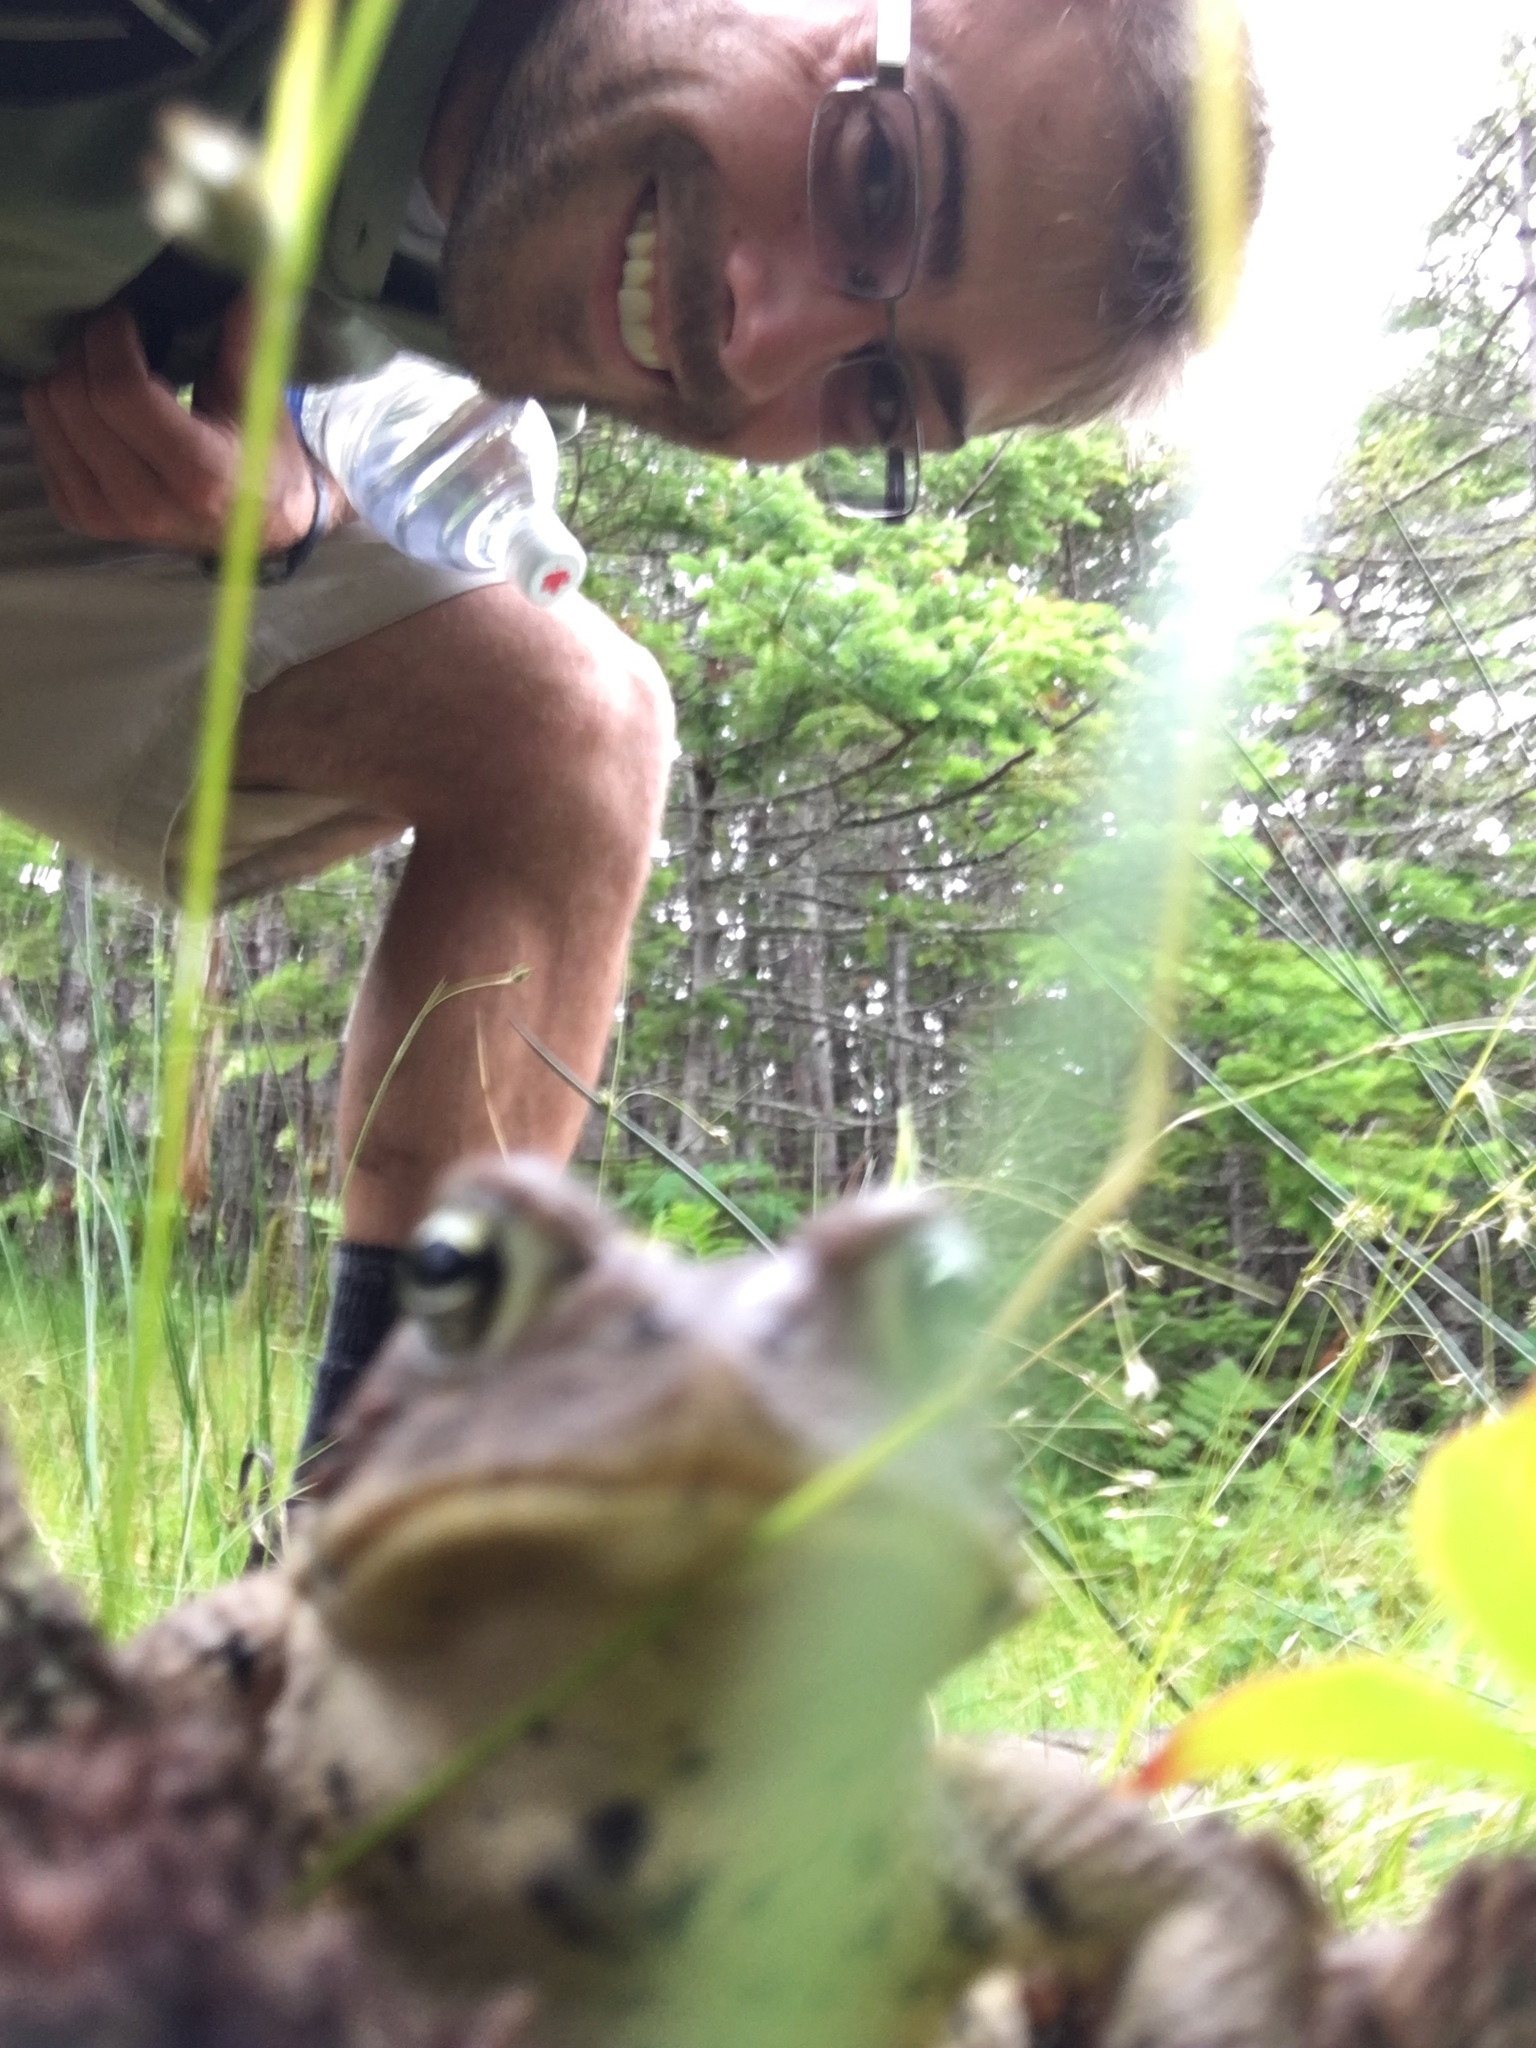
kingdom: Animalia
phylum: Chordata
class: Amphibia
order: Anura
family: Bufonidae
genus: Anaxyrus
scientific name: Anaxyrus americanus
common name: American toad
